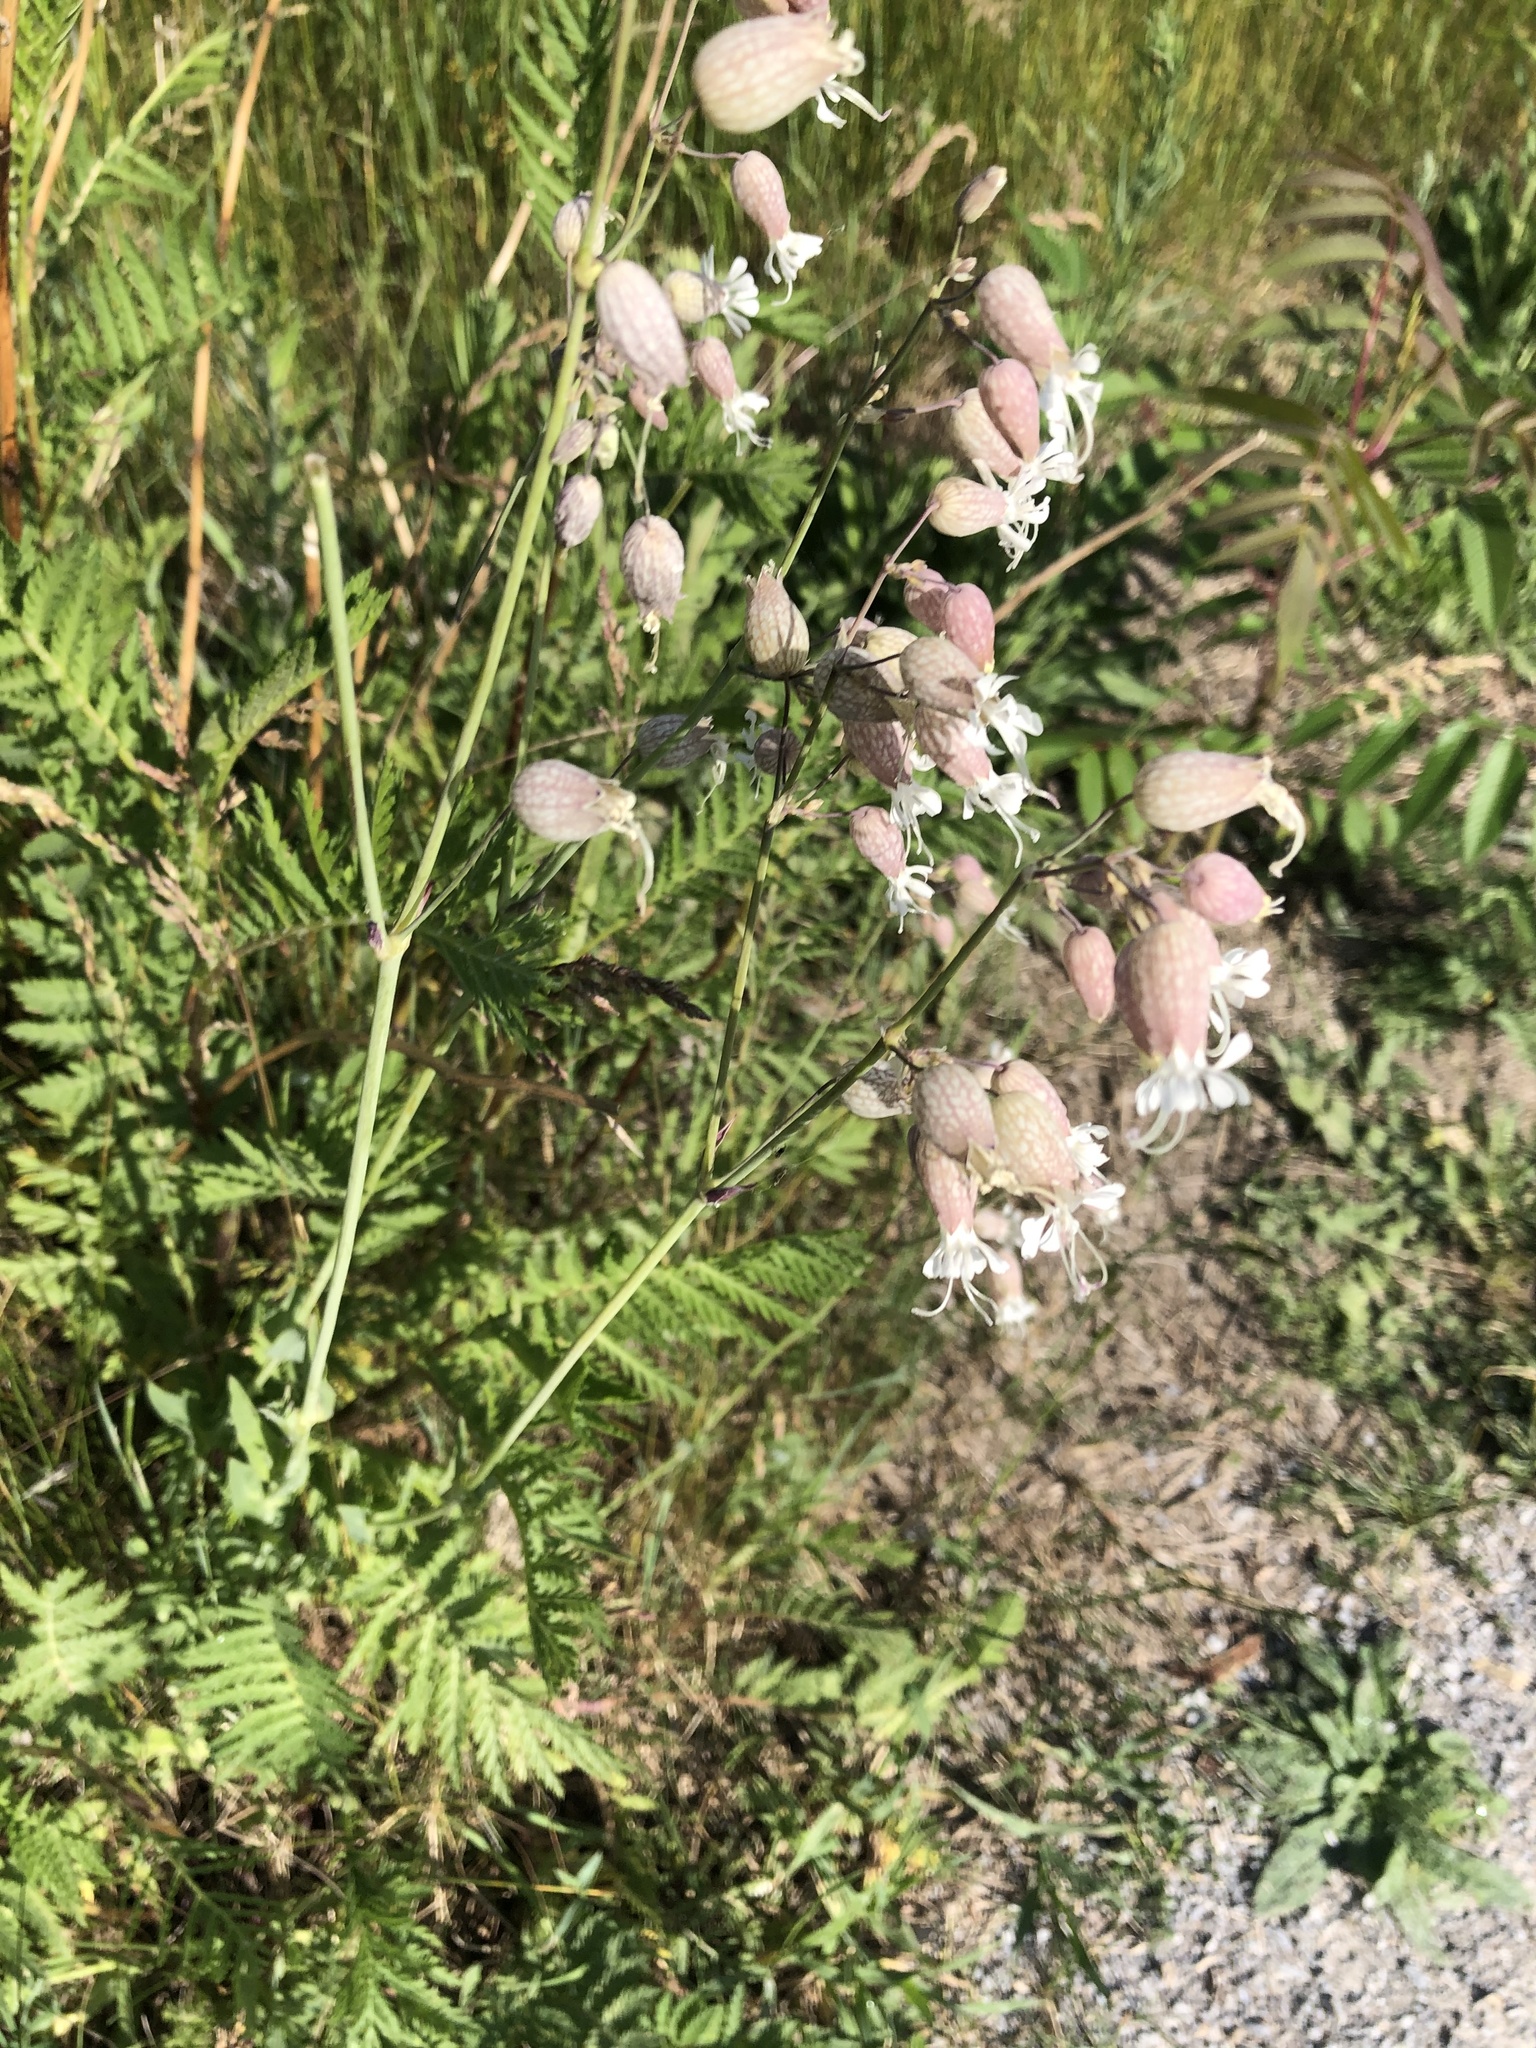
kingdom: Plantae
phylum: Tracheophyta
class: Magnoliopsida
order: Caryophyllales
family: Caryophyllaceae
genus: Silene
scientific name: Silene vulgaris
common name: Bladder campion
